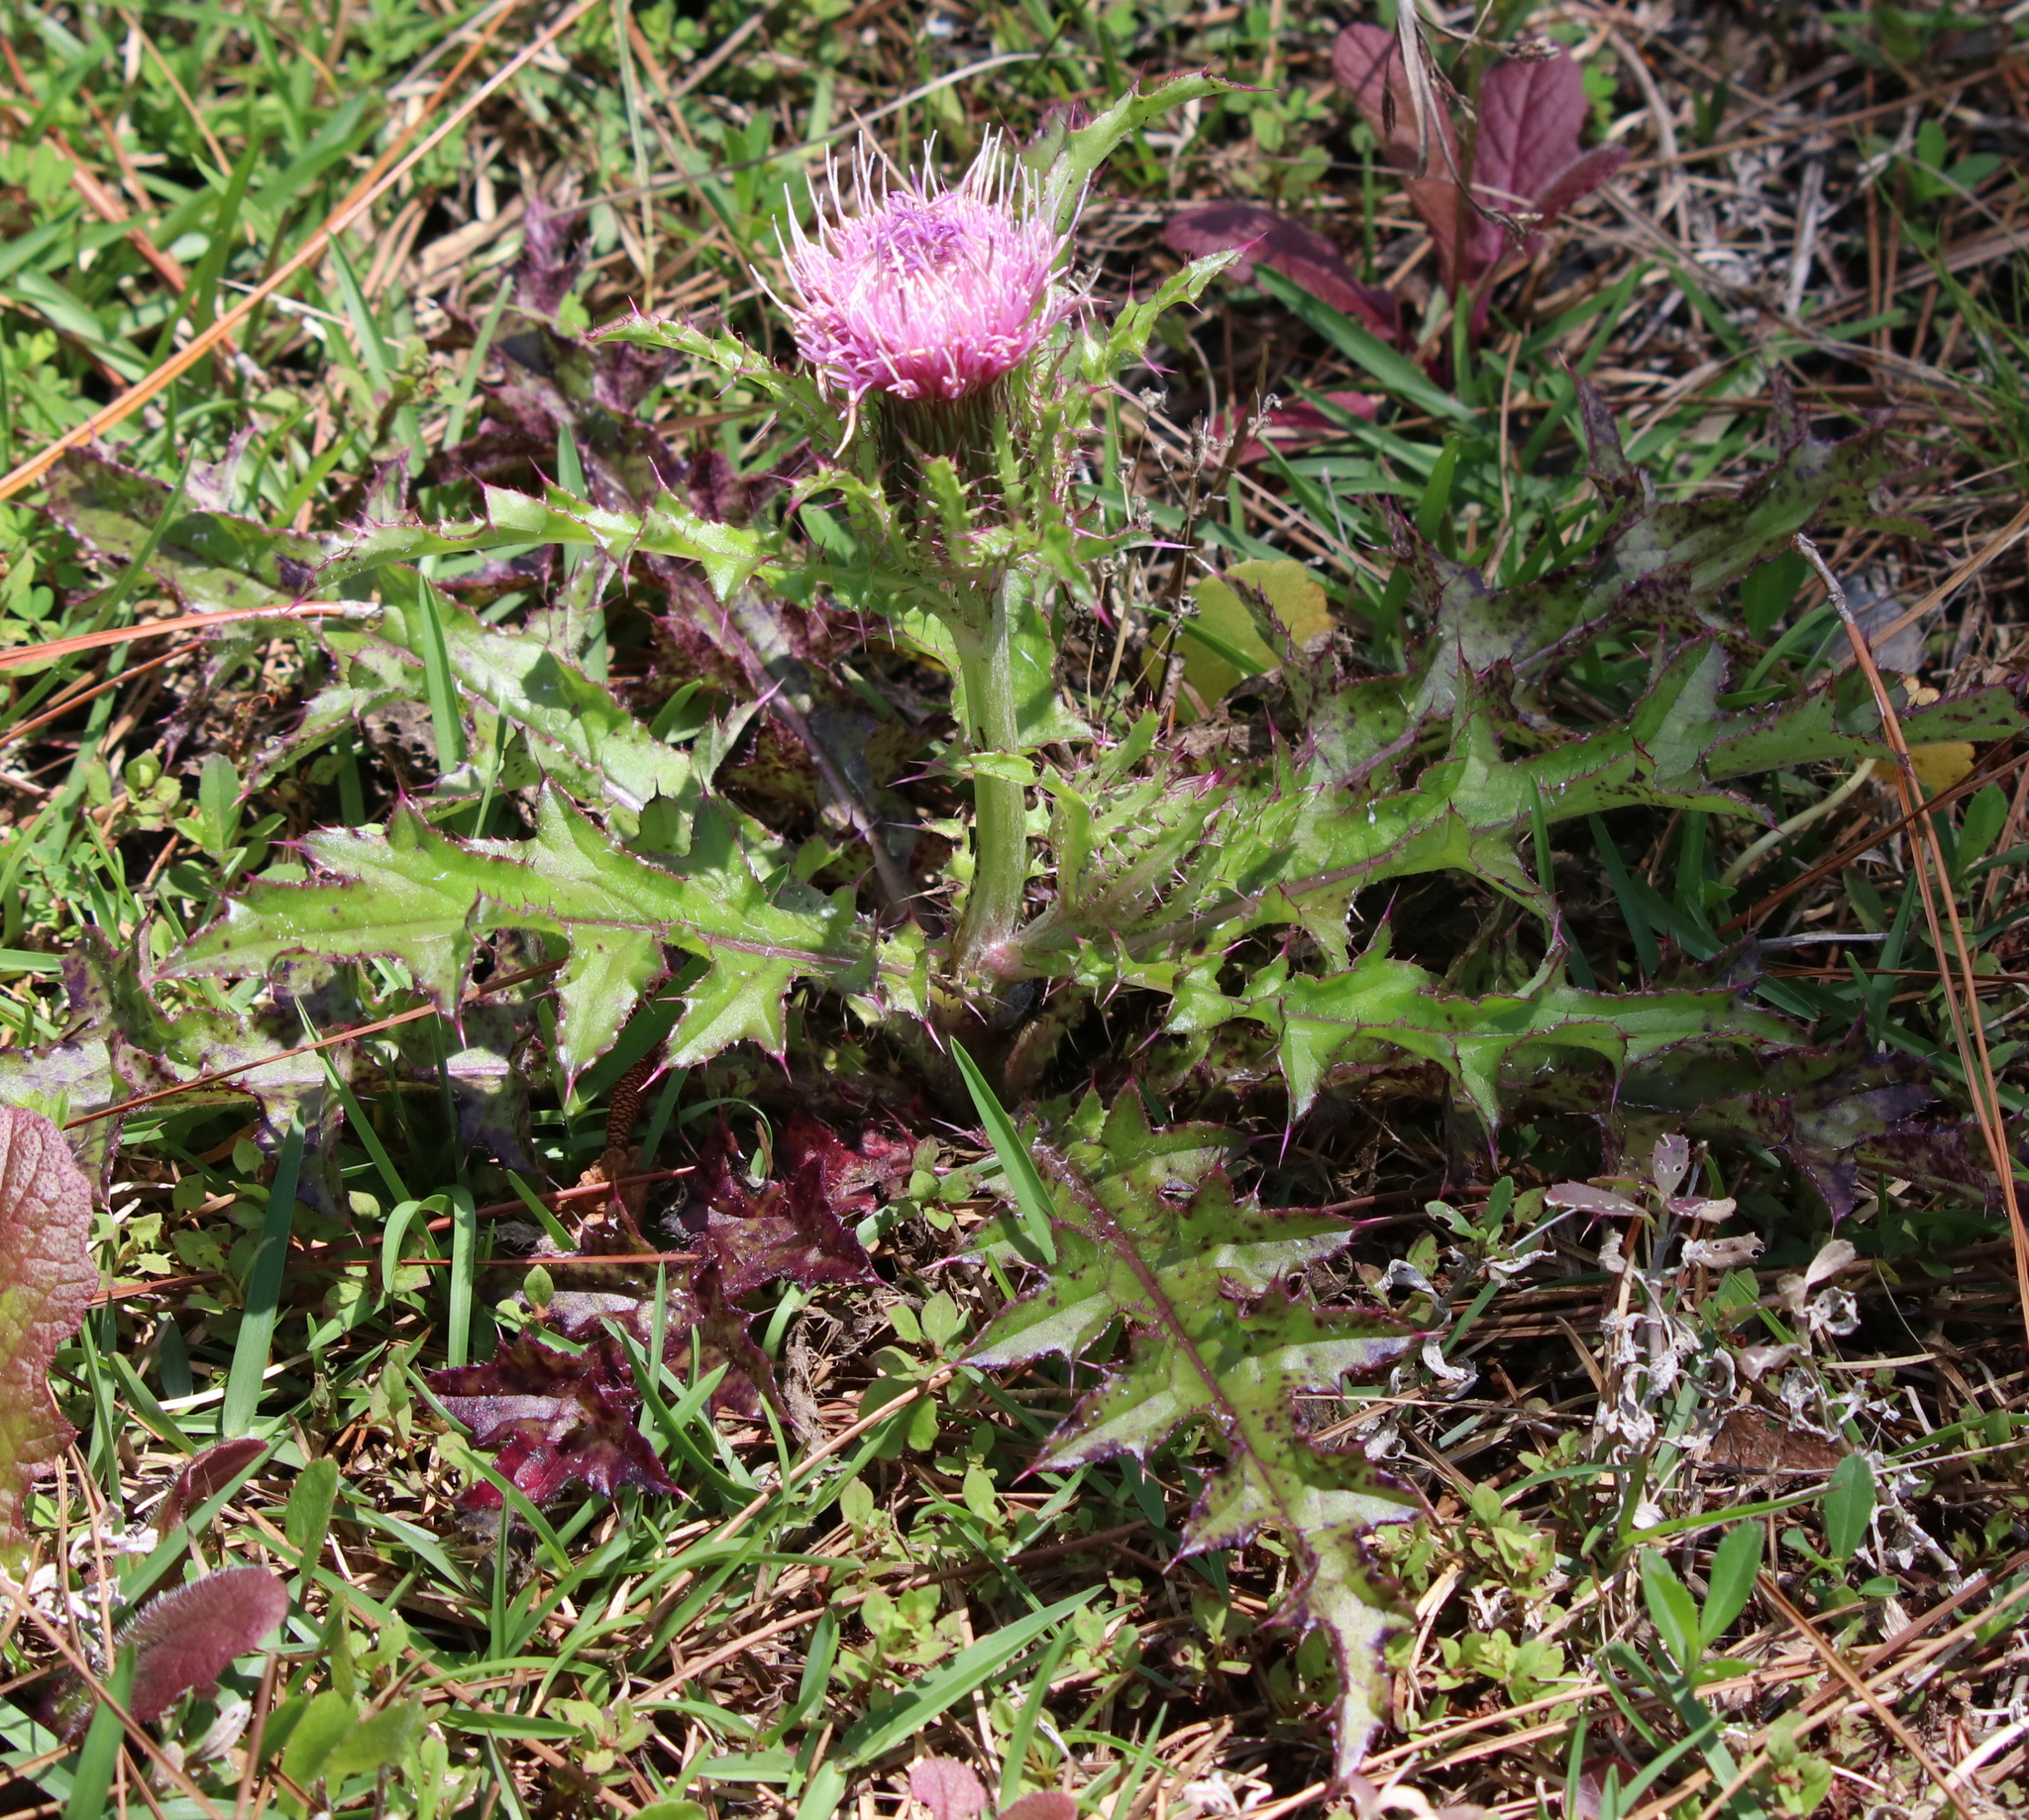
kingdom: Plantae
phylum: Tracheophyta
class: Magnoliopsida
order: Asterales
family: Asteraceae
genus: Cirsium
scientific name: Cirsium horridulum
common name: Bristly thistle
